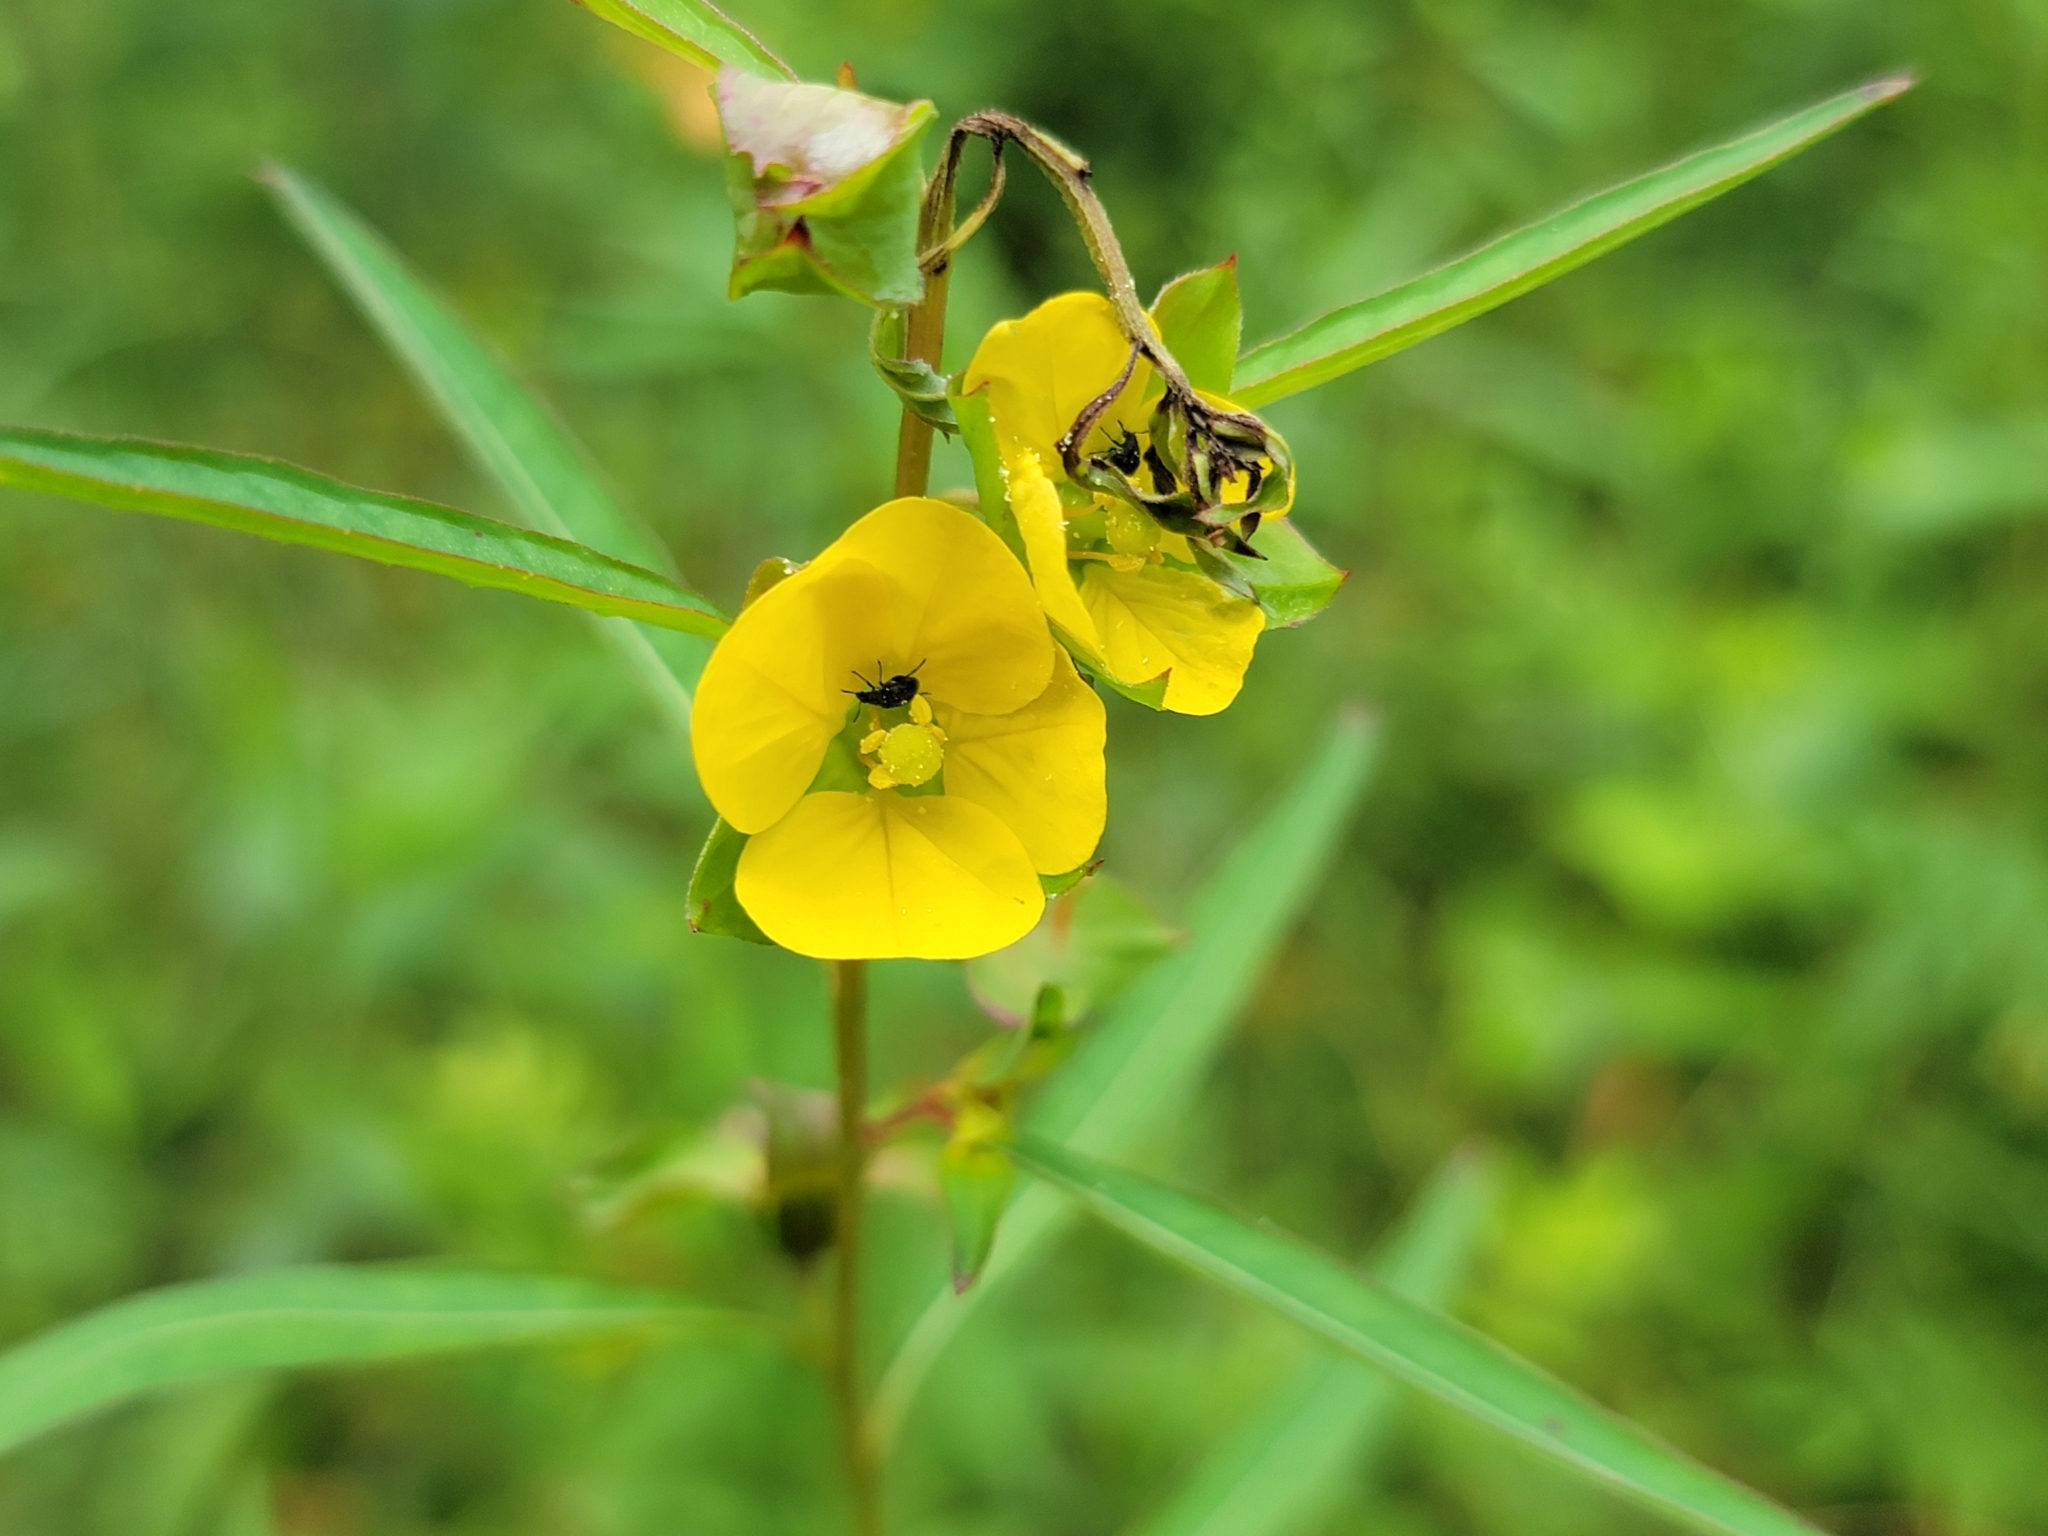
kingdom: Plantae
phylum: Tracheophyta
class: Magnoliopsida
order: Myrtales
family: Onagraceae
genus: Ludwigia
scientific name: Ludwigia alternifolia
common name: Rattlebox
